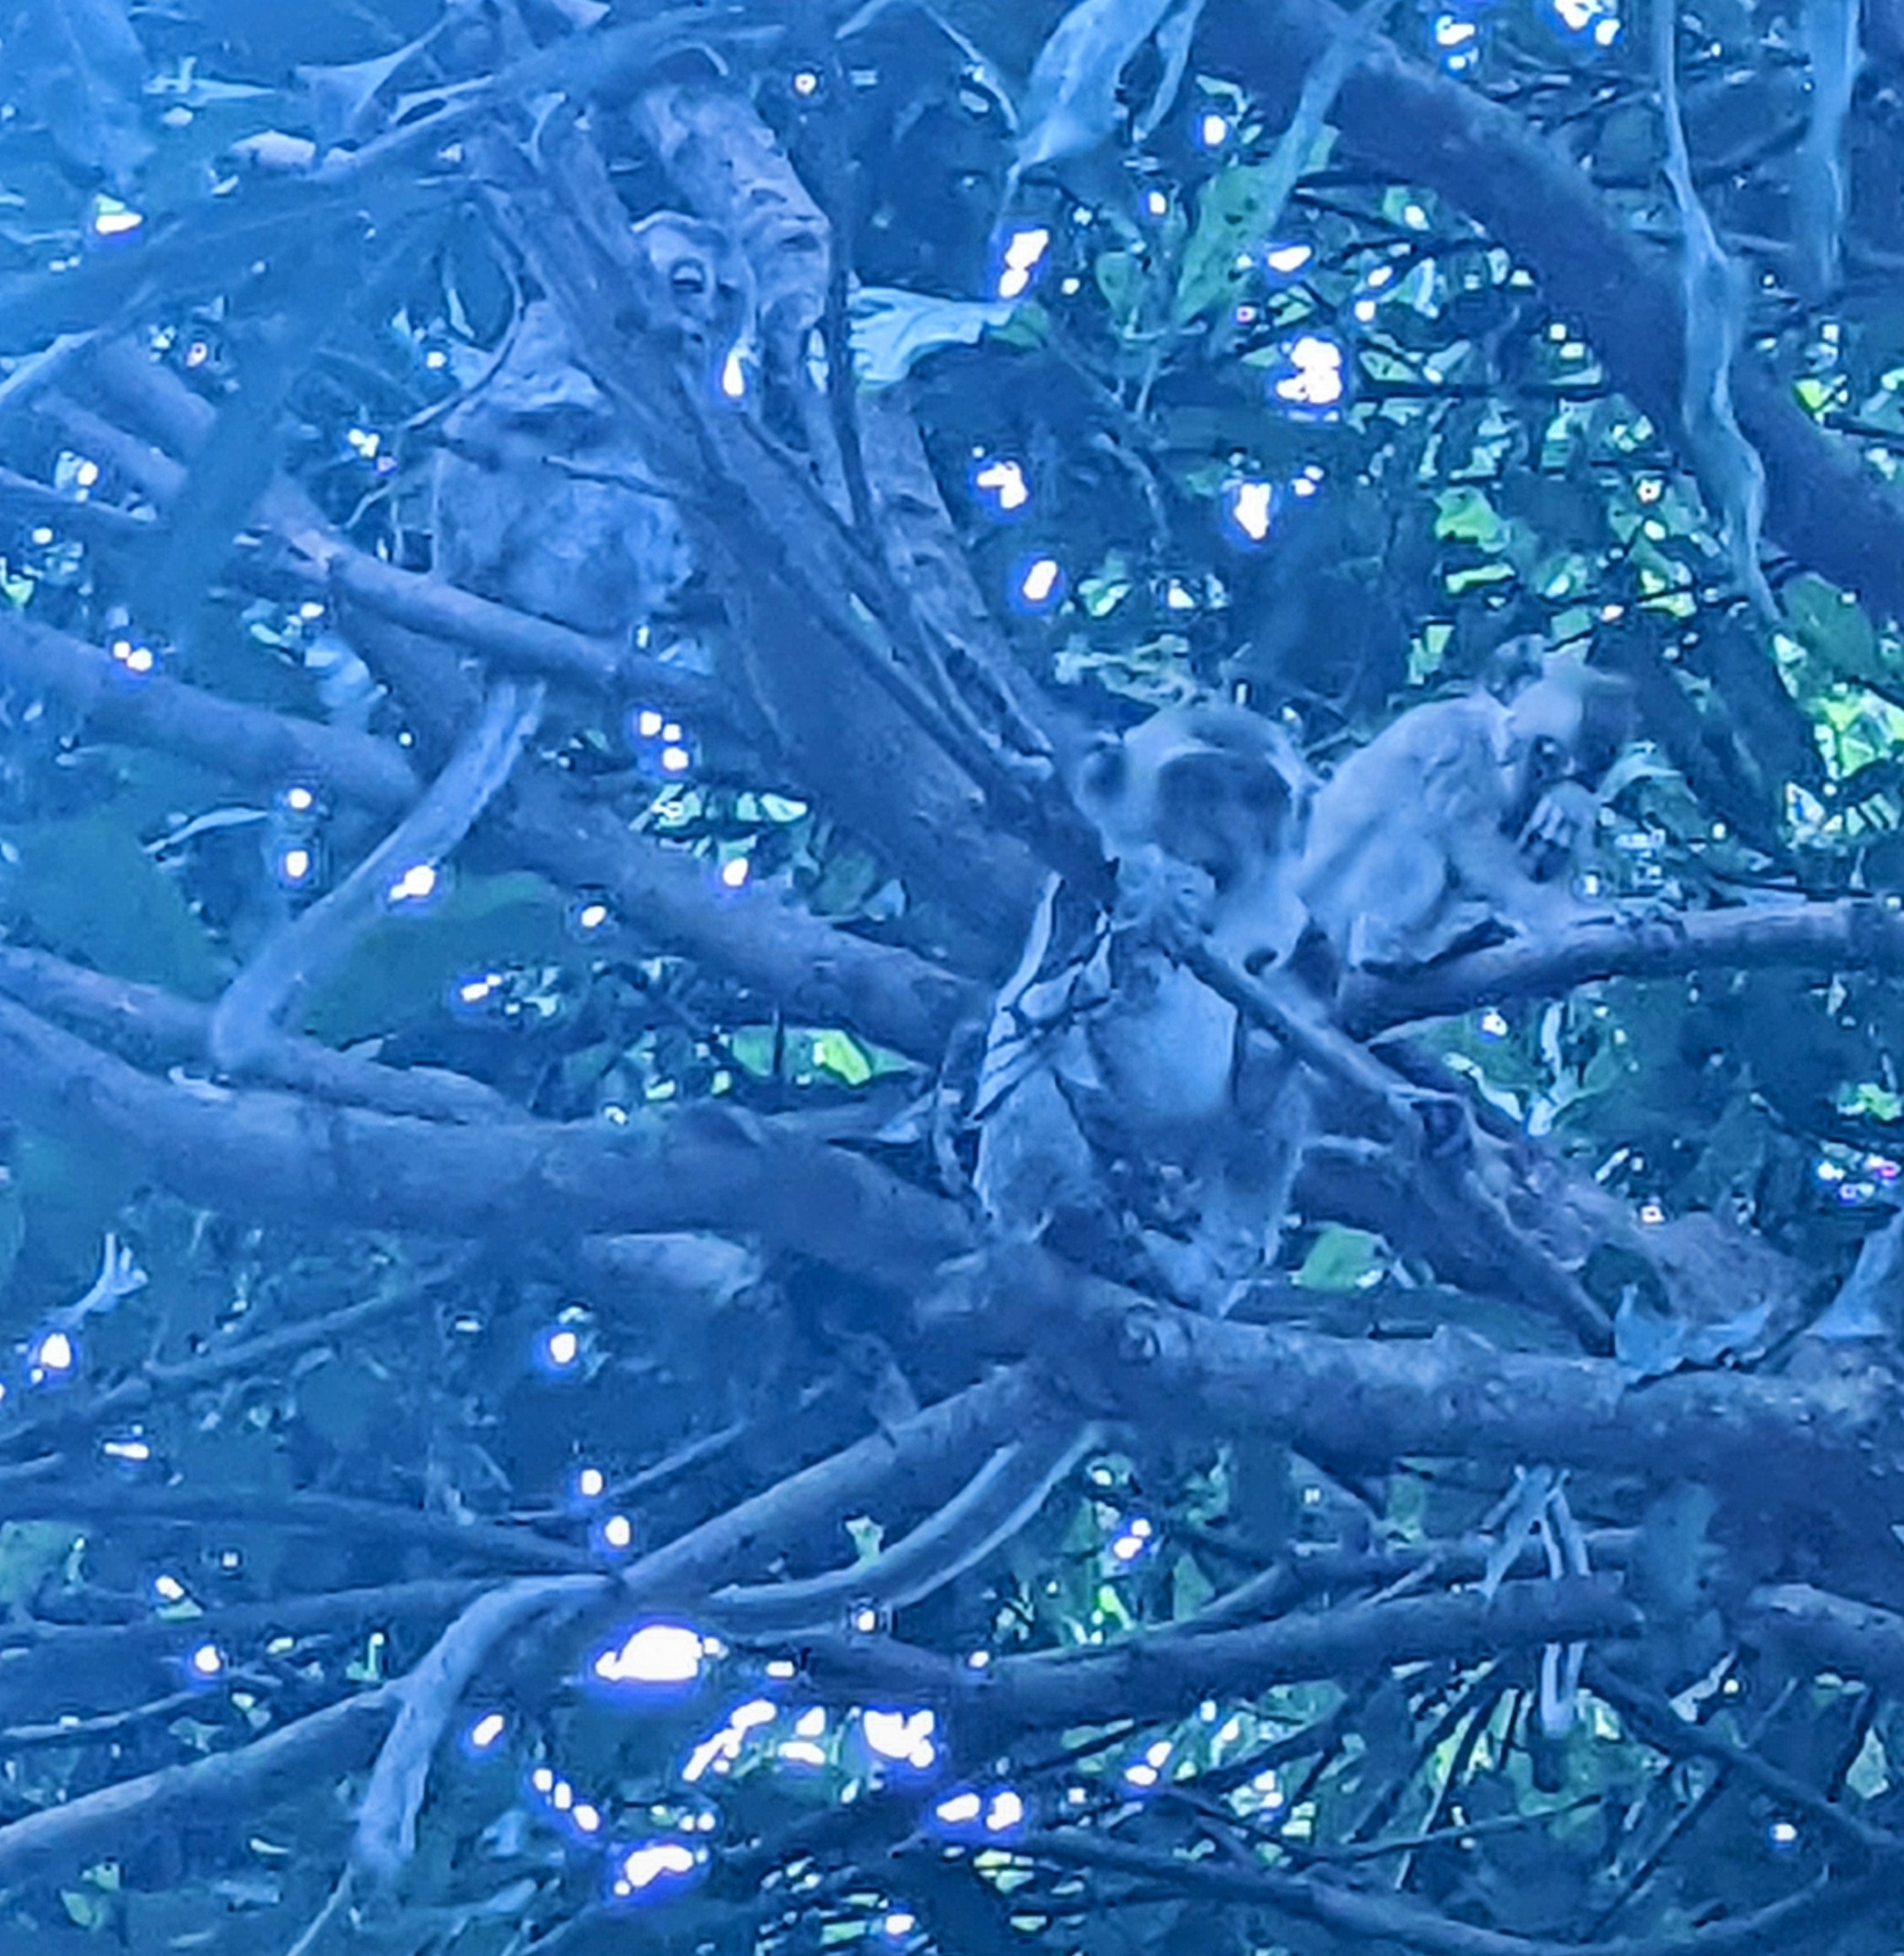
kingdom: Animalia
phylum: Chordata
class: Mammalia
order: Primates
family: Cercopithecidae
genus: Macaca
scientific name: Macaca fascicularis
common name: Crab-eating macaque
